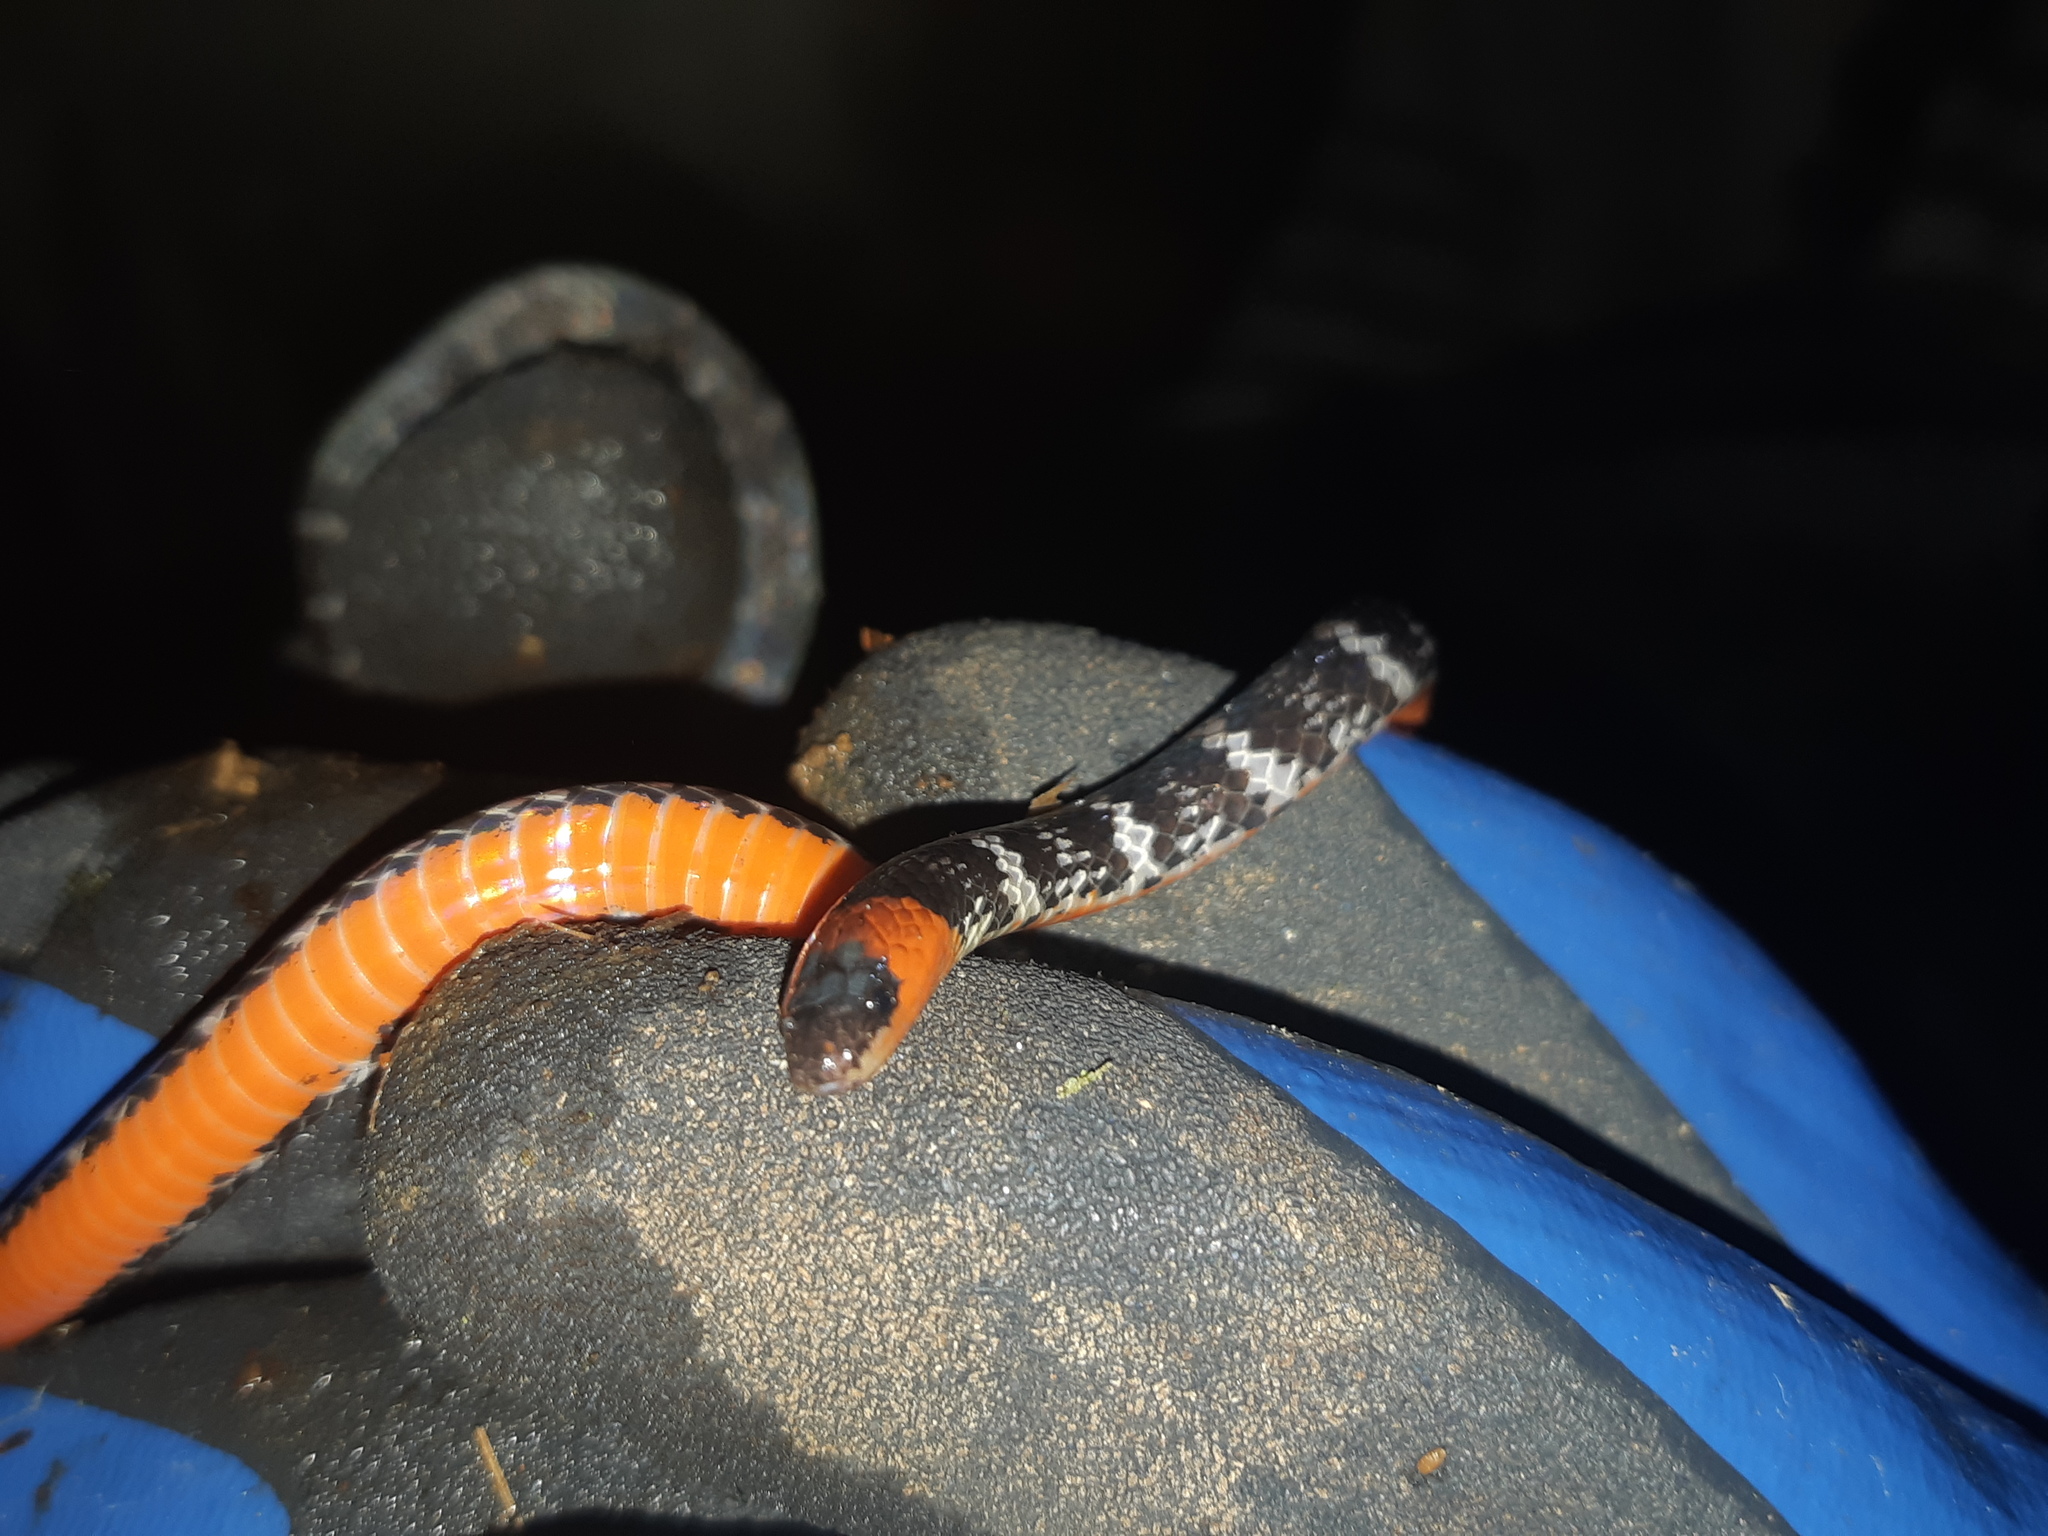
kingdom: Animalia
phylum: Chordata
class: Squamata
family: Colubridae
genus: Atractus
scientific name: Atractus clarki
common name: Clark's ground snake
